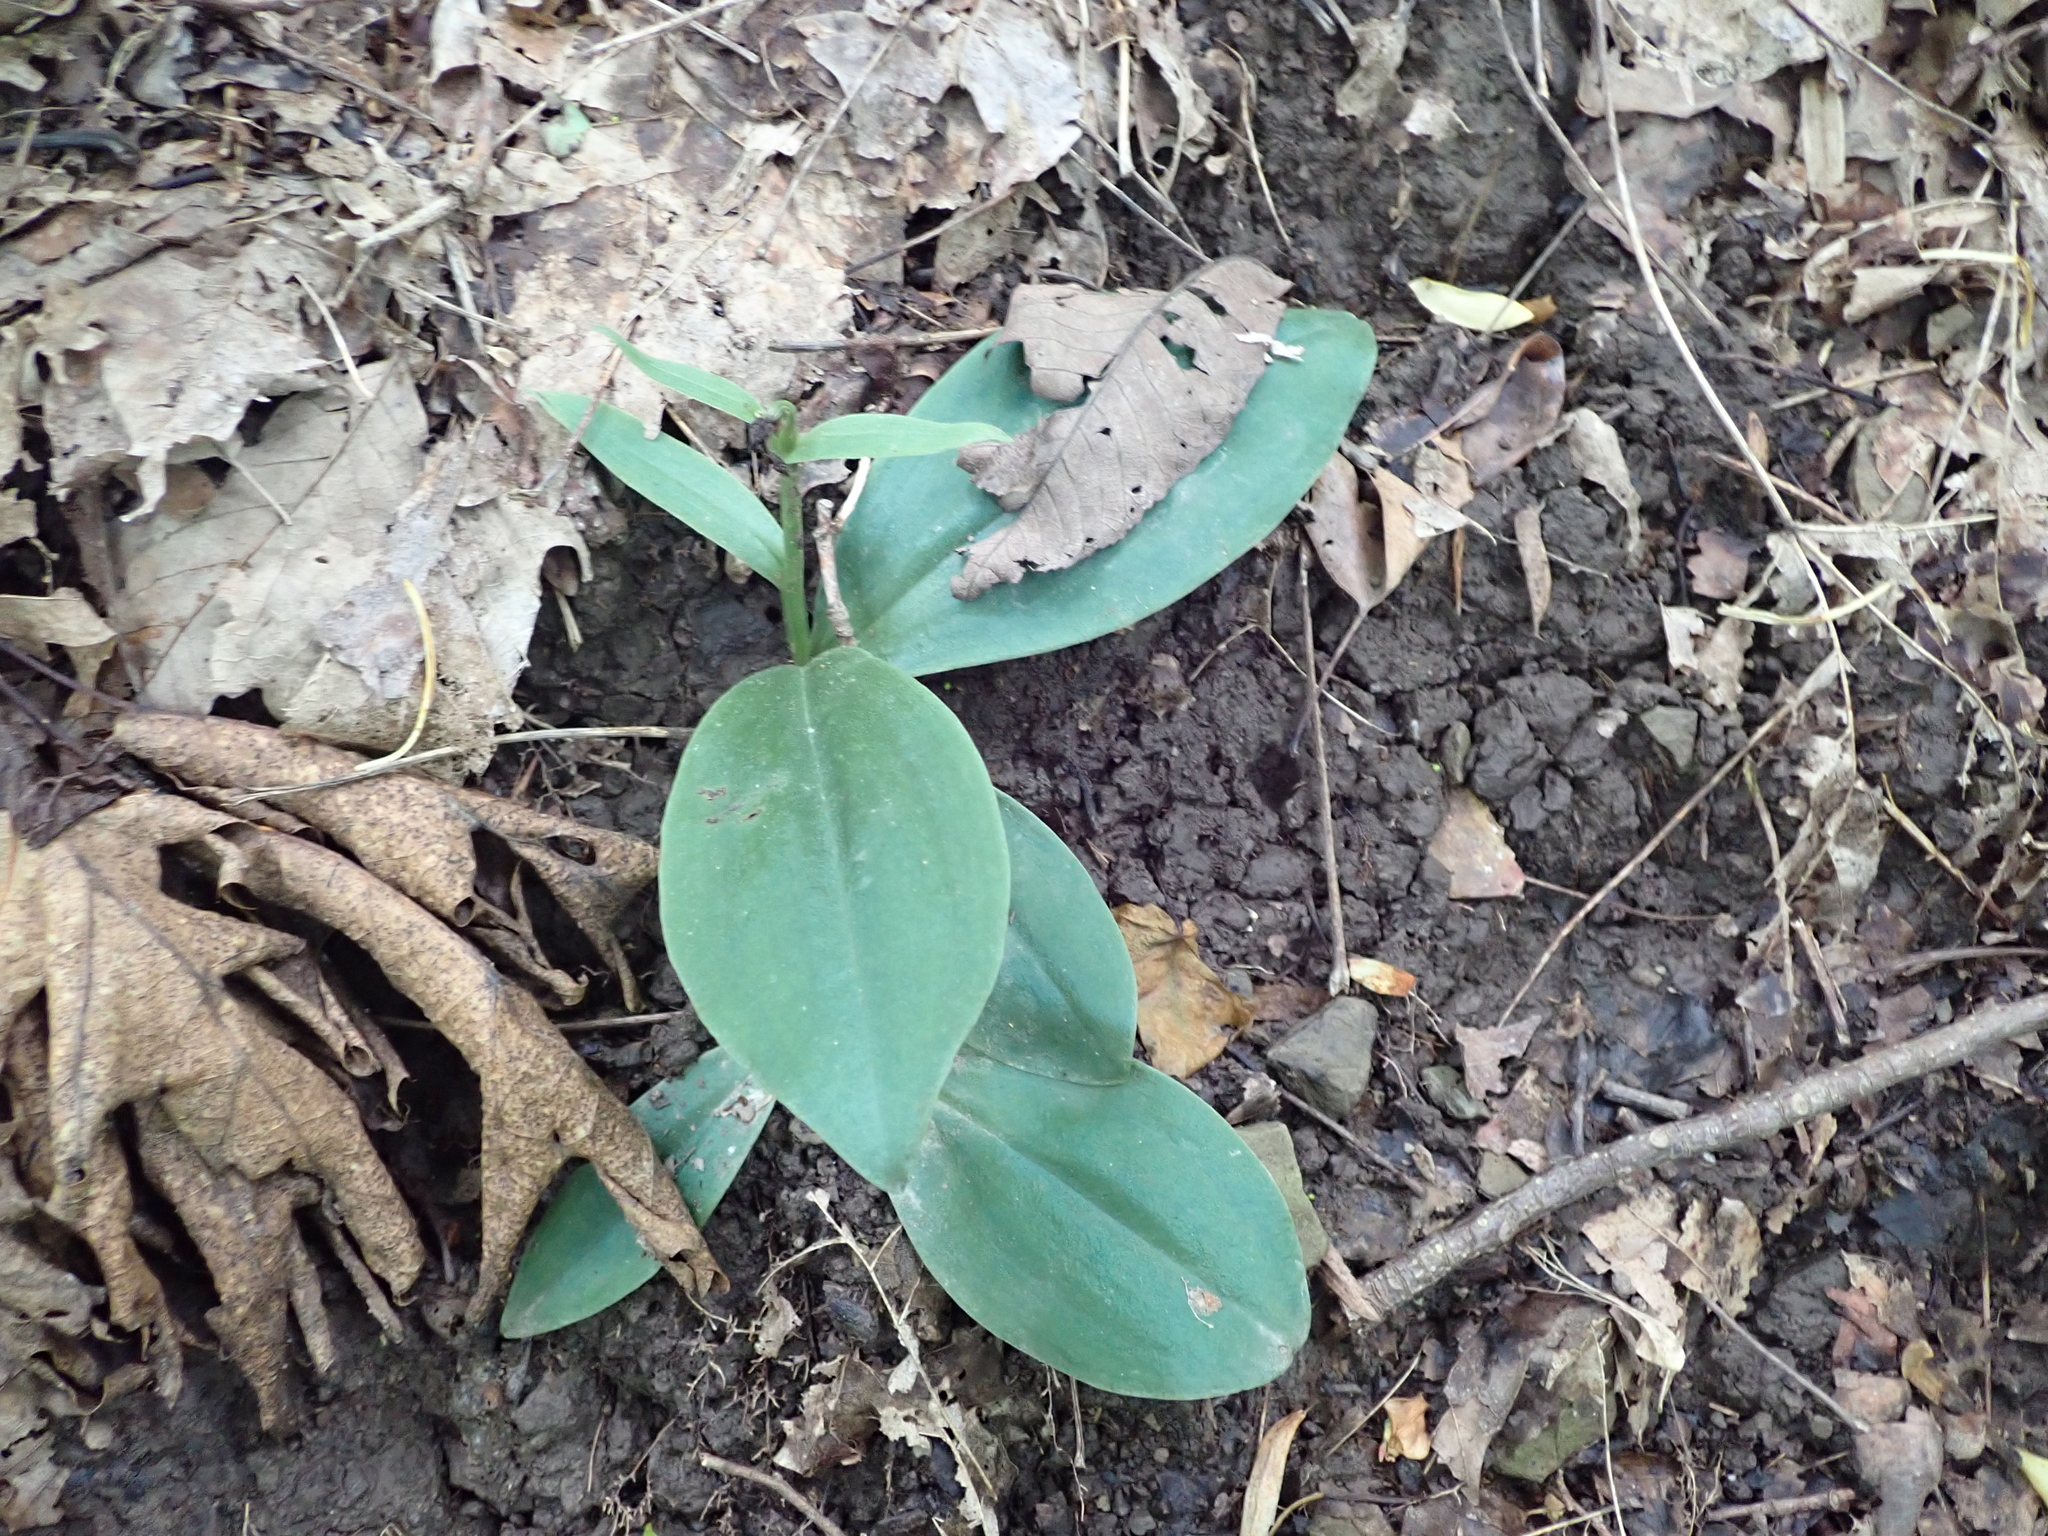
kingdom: Plantae
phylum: Tracheophyta
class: Liliopsida
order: Asparagales
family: Orchidaceae
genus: Galearis
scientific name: Galearis spectabilis
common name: Purple-hooded orchis
